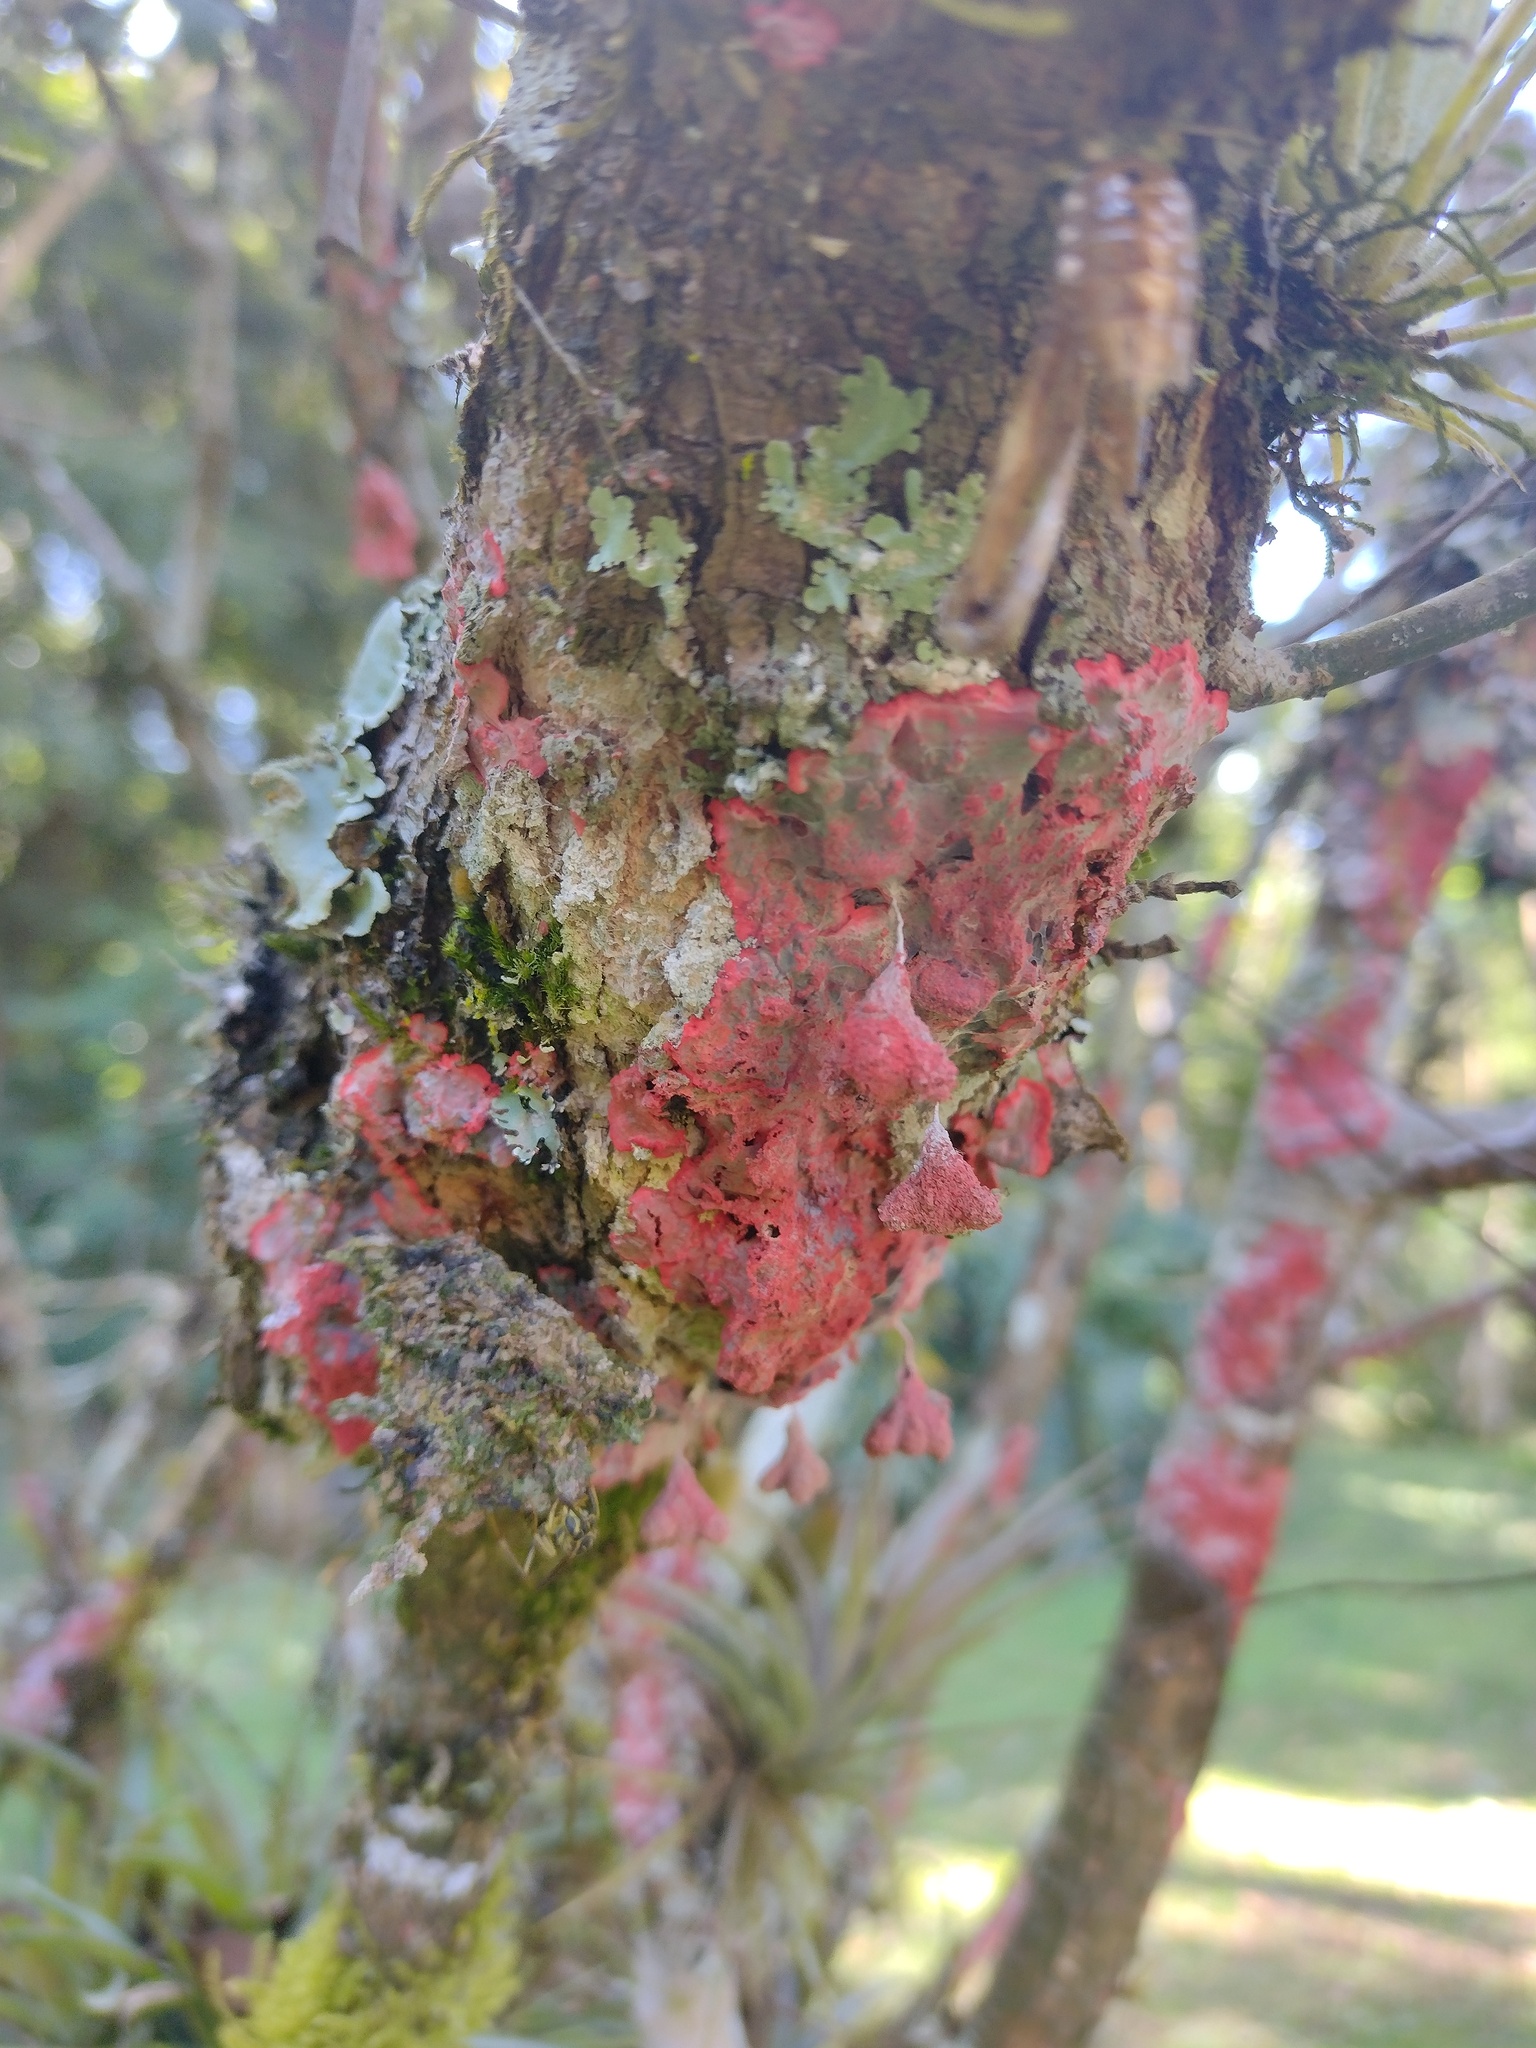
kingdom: Fungi
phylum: Ascomycota
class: Arthoniomycetes
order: Arthoniales
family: Arthoniaceae
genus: Herpothallon
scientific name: Herpothallon rubrocinctum
